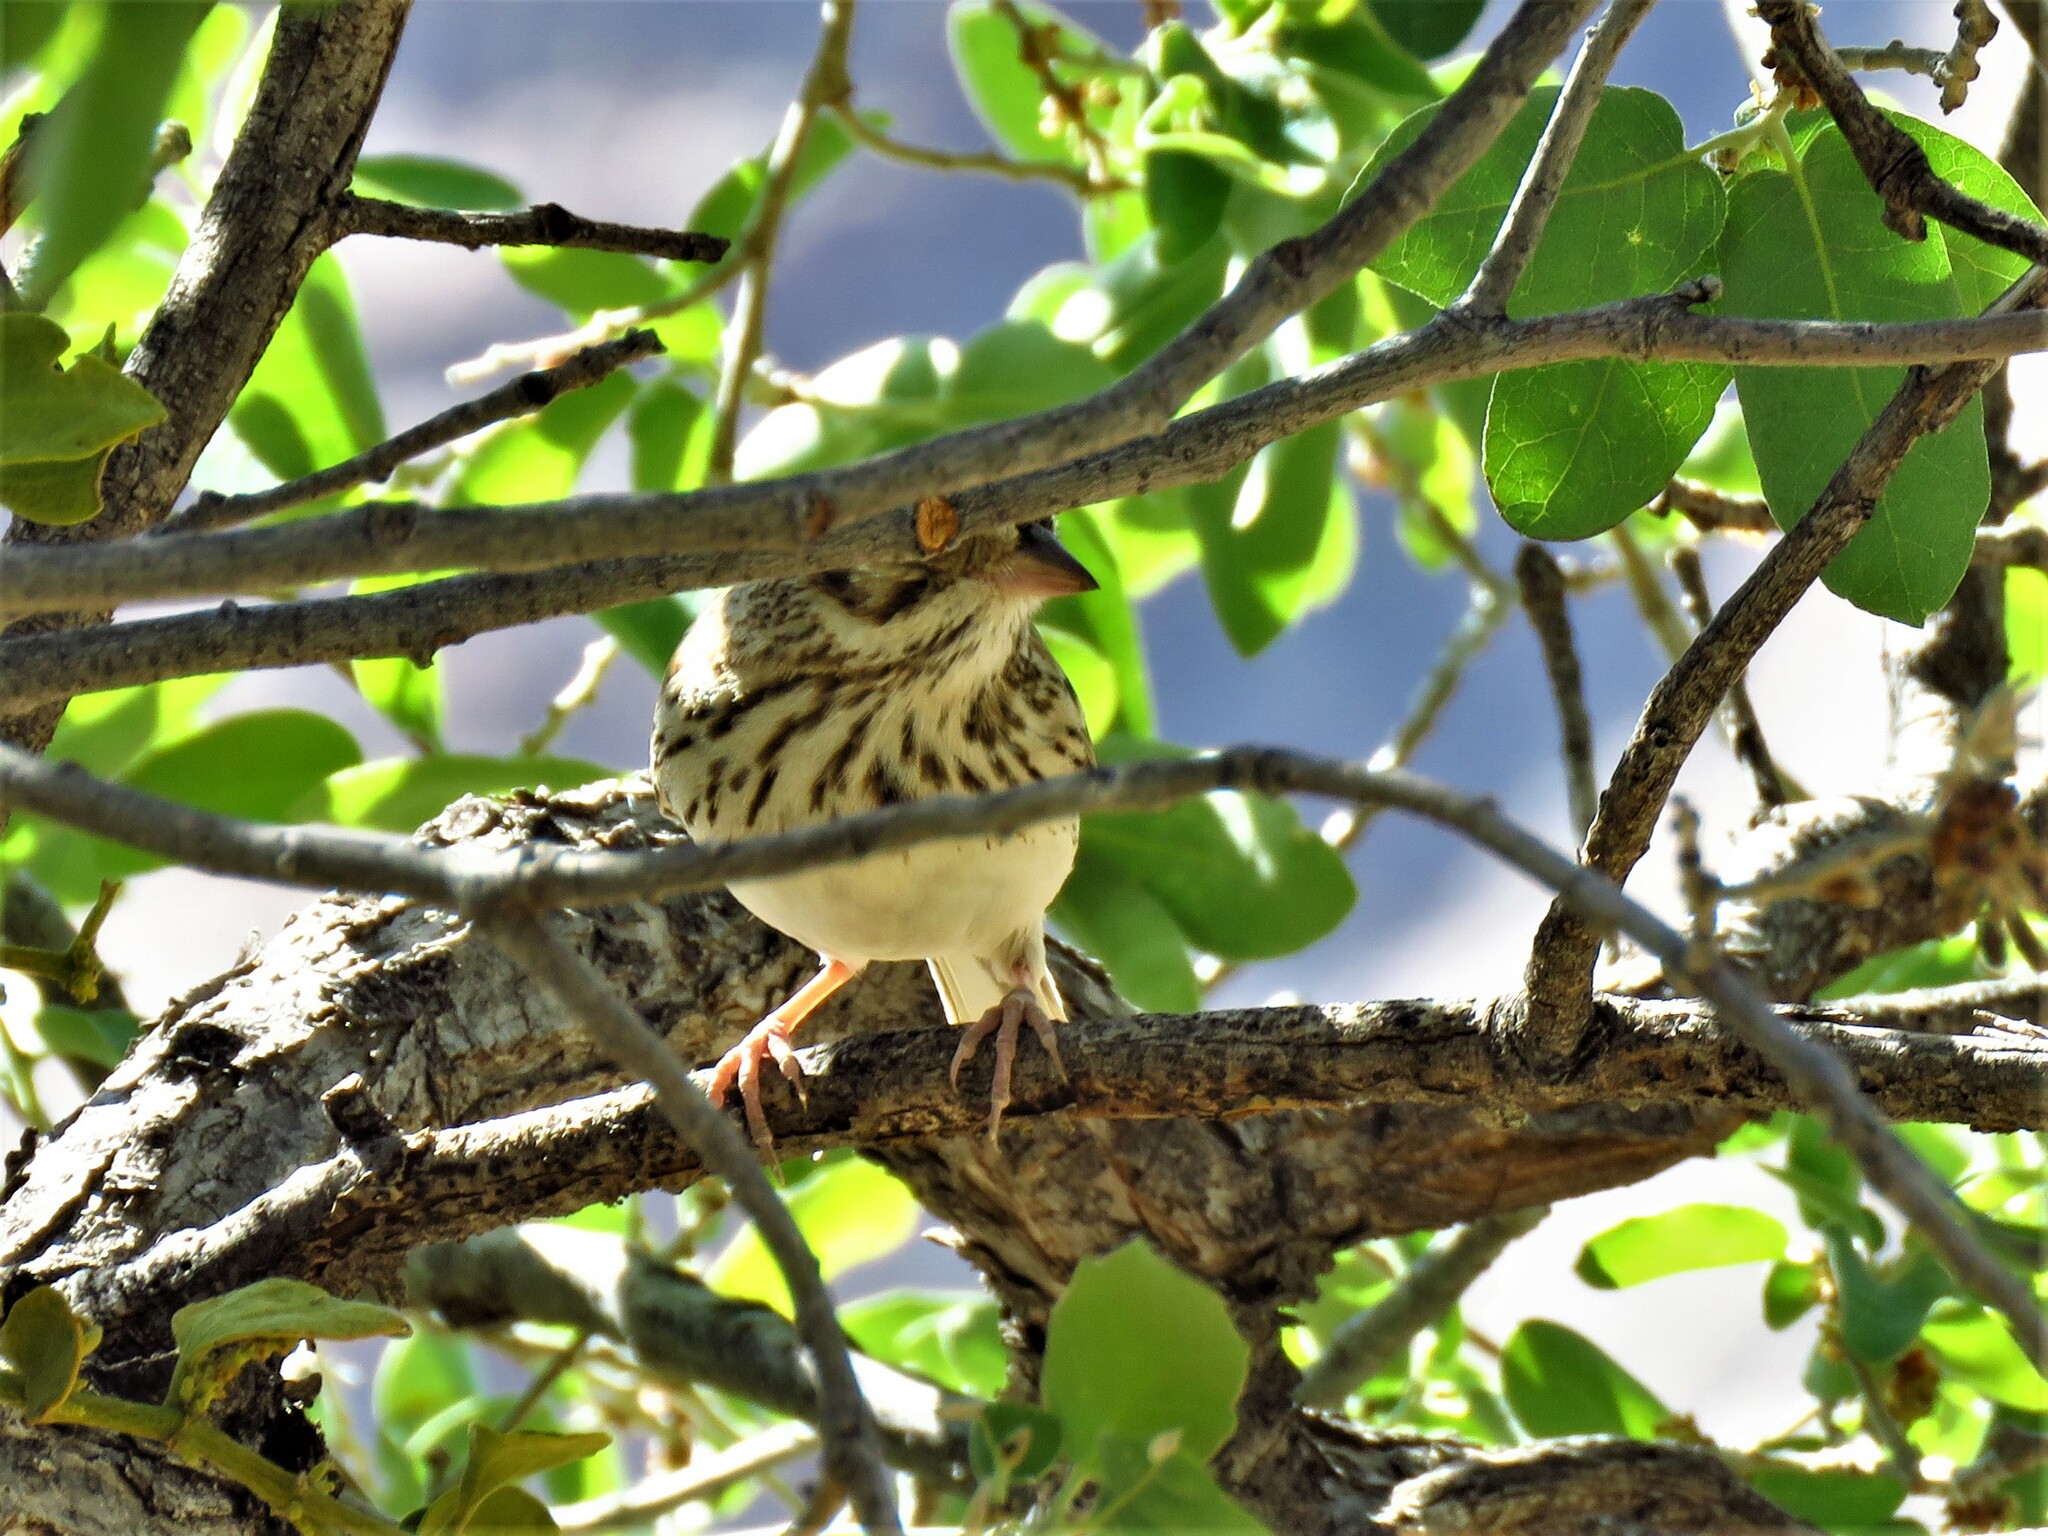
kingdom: Animalia
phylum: Chordata
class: Aves
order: Passeriformes
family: Passerellidae
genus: Pooecetes
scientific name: Pooecetes gramineus
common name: Vesper sparrow
